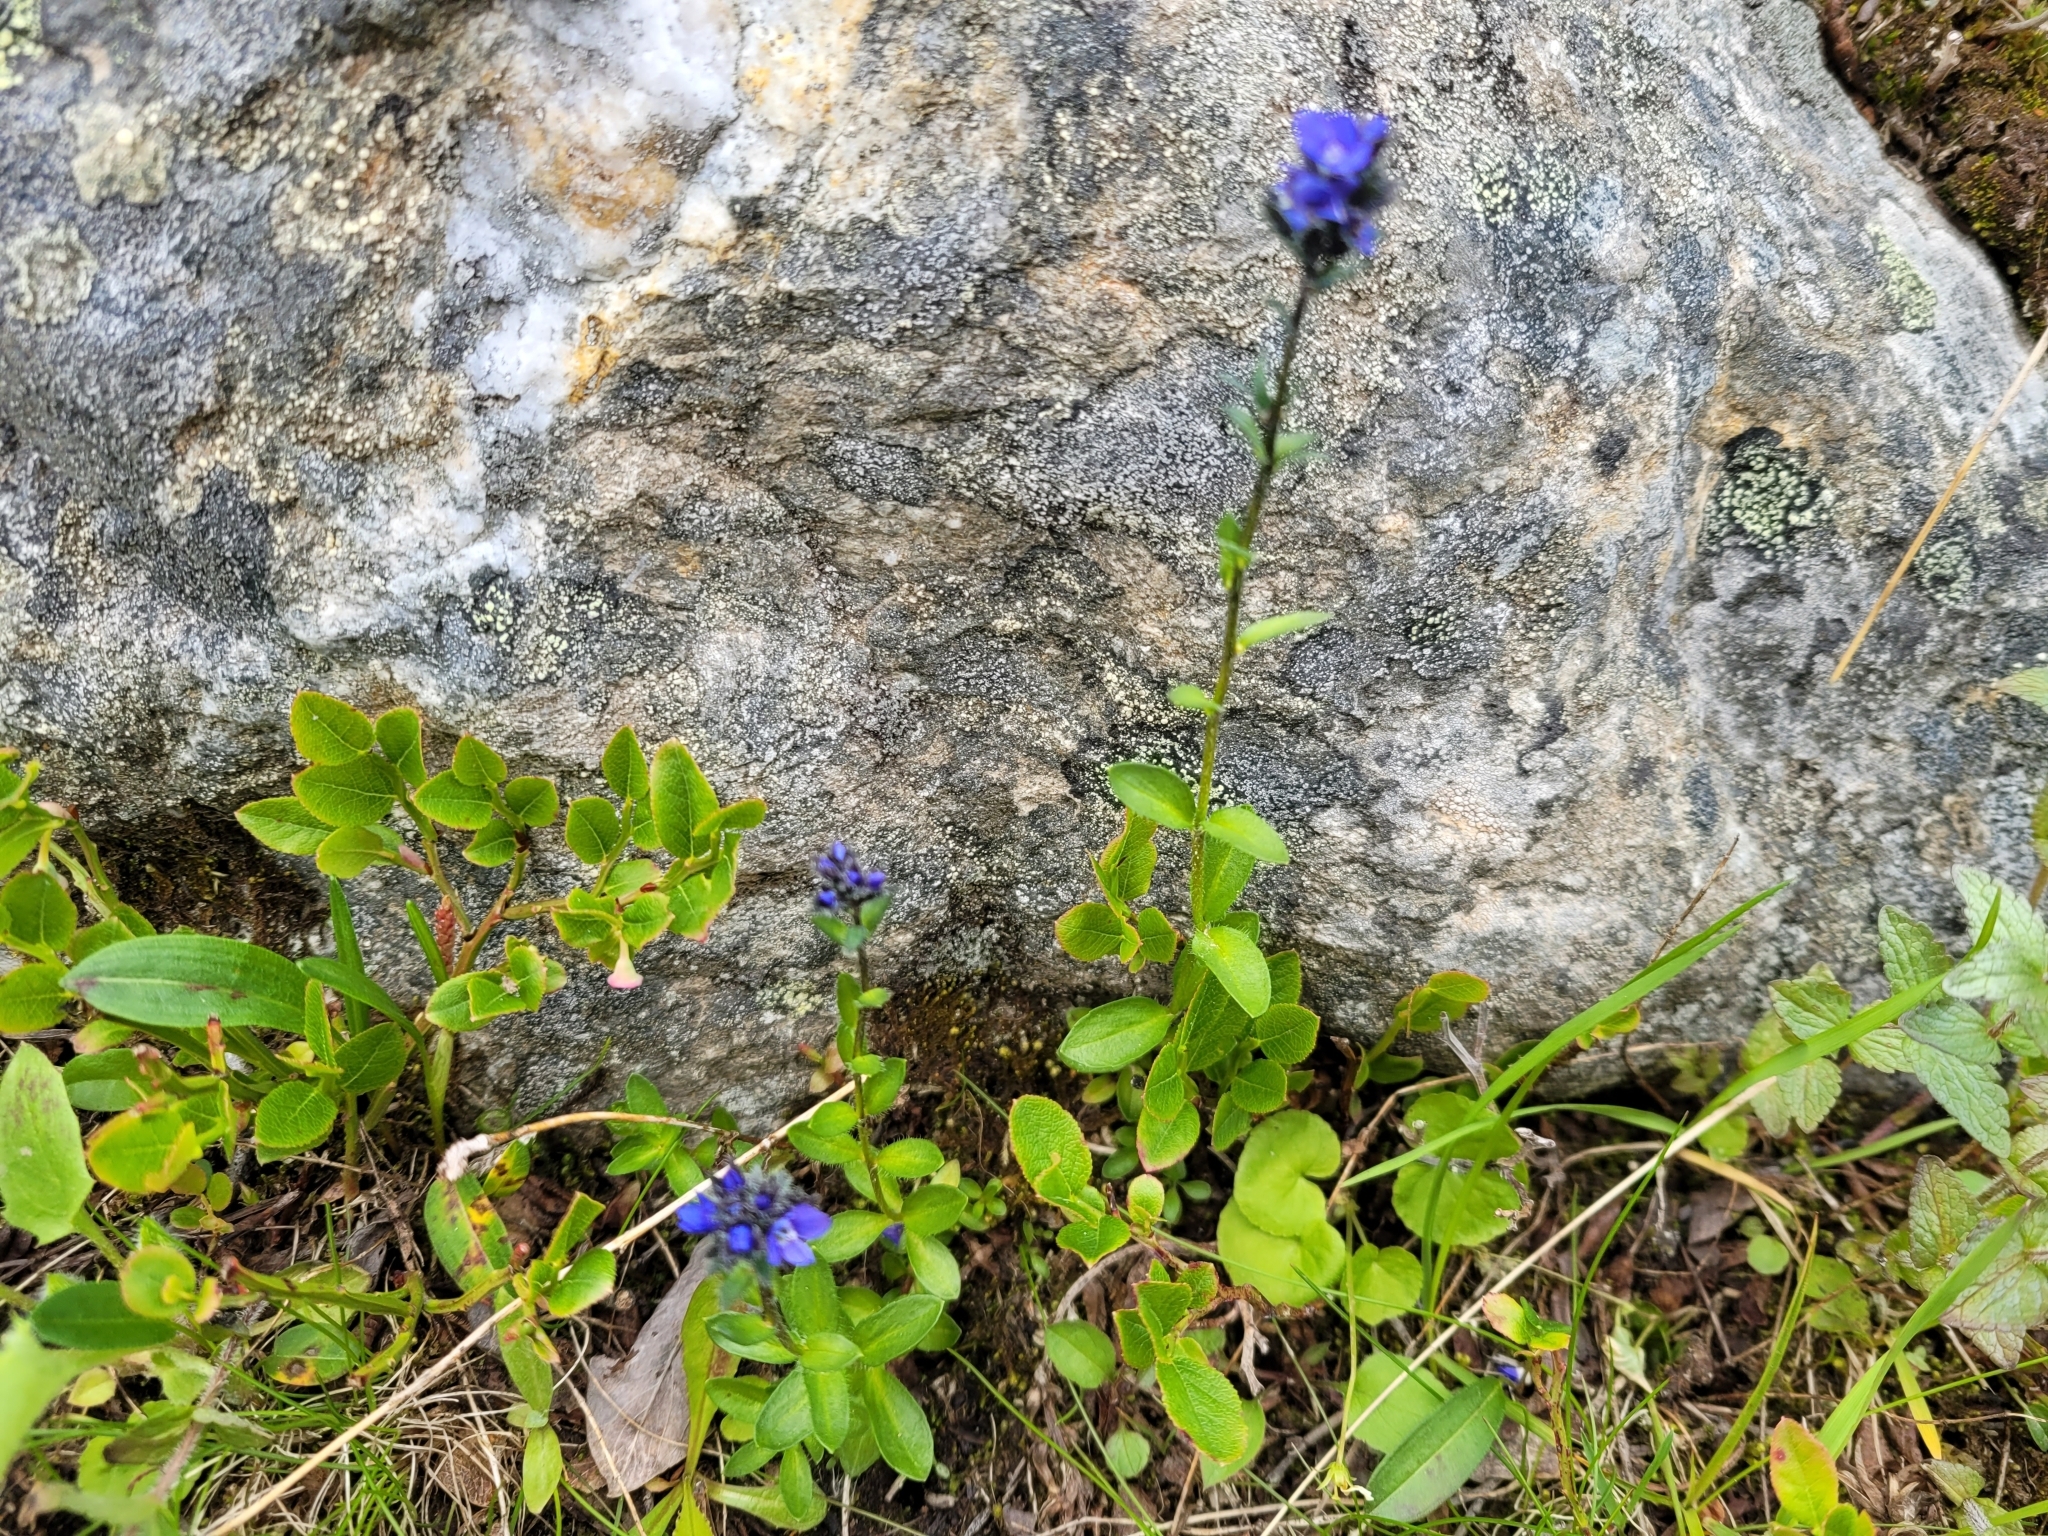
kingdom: Plantae
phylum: Tracheophyta
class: Magnoliopsida
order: Lamiales
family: Plantaginaceae
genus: Veronica
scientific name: Veronica alpina
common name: Alpine speedwell
